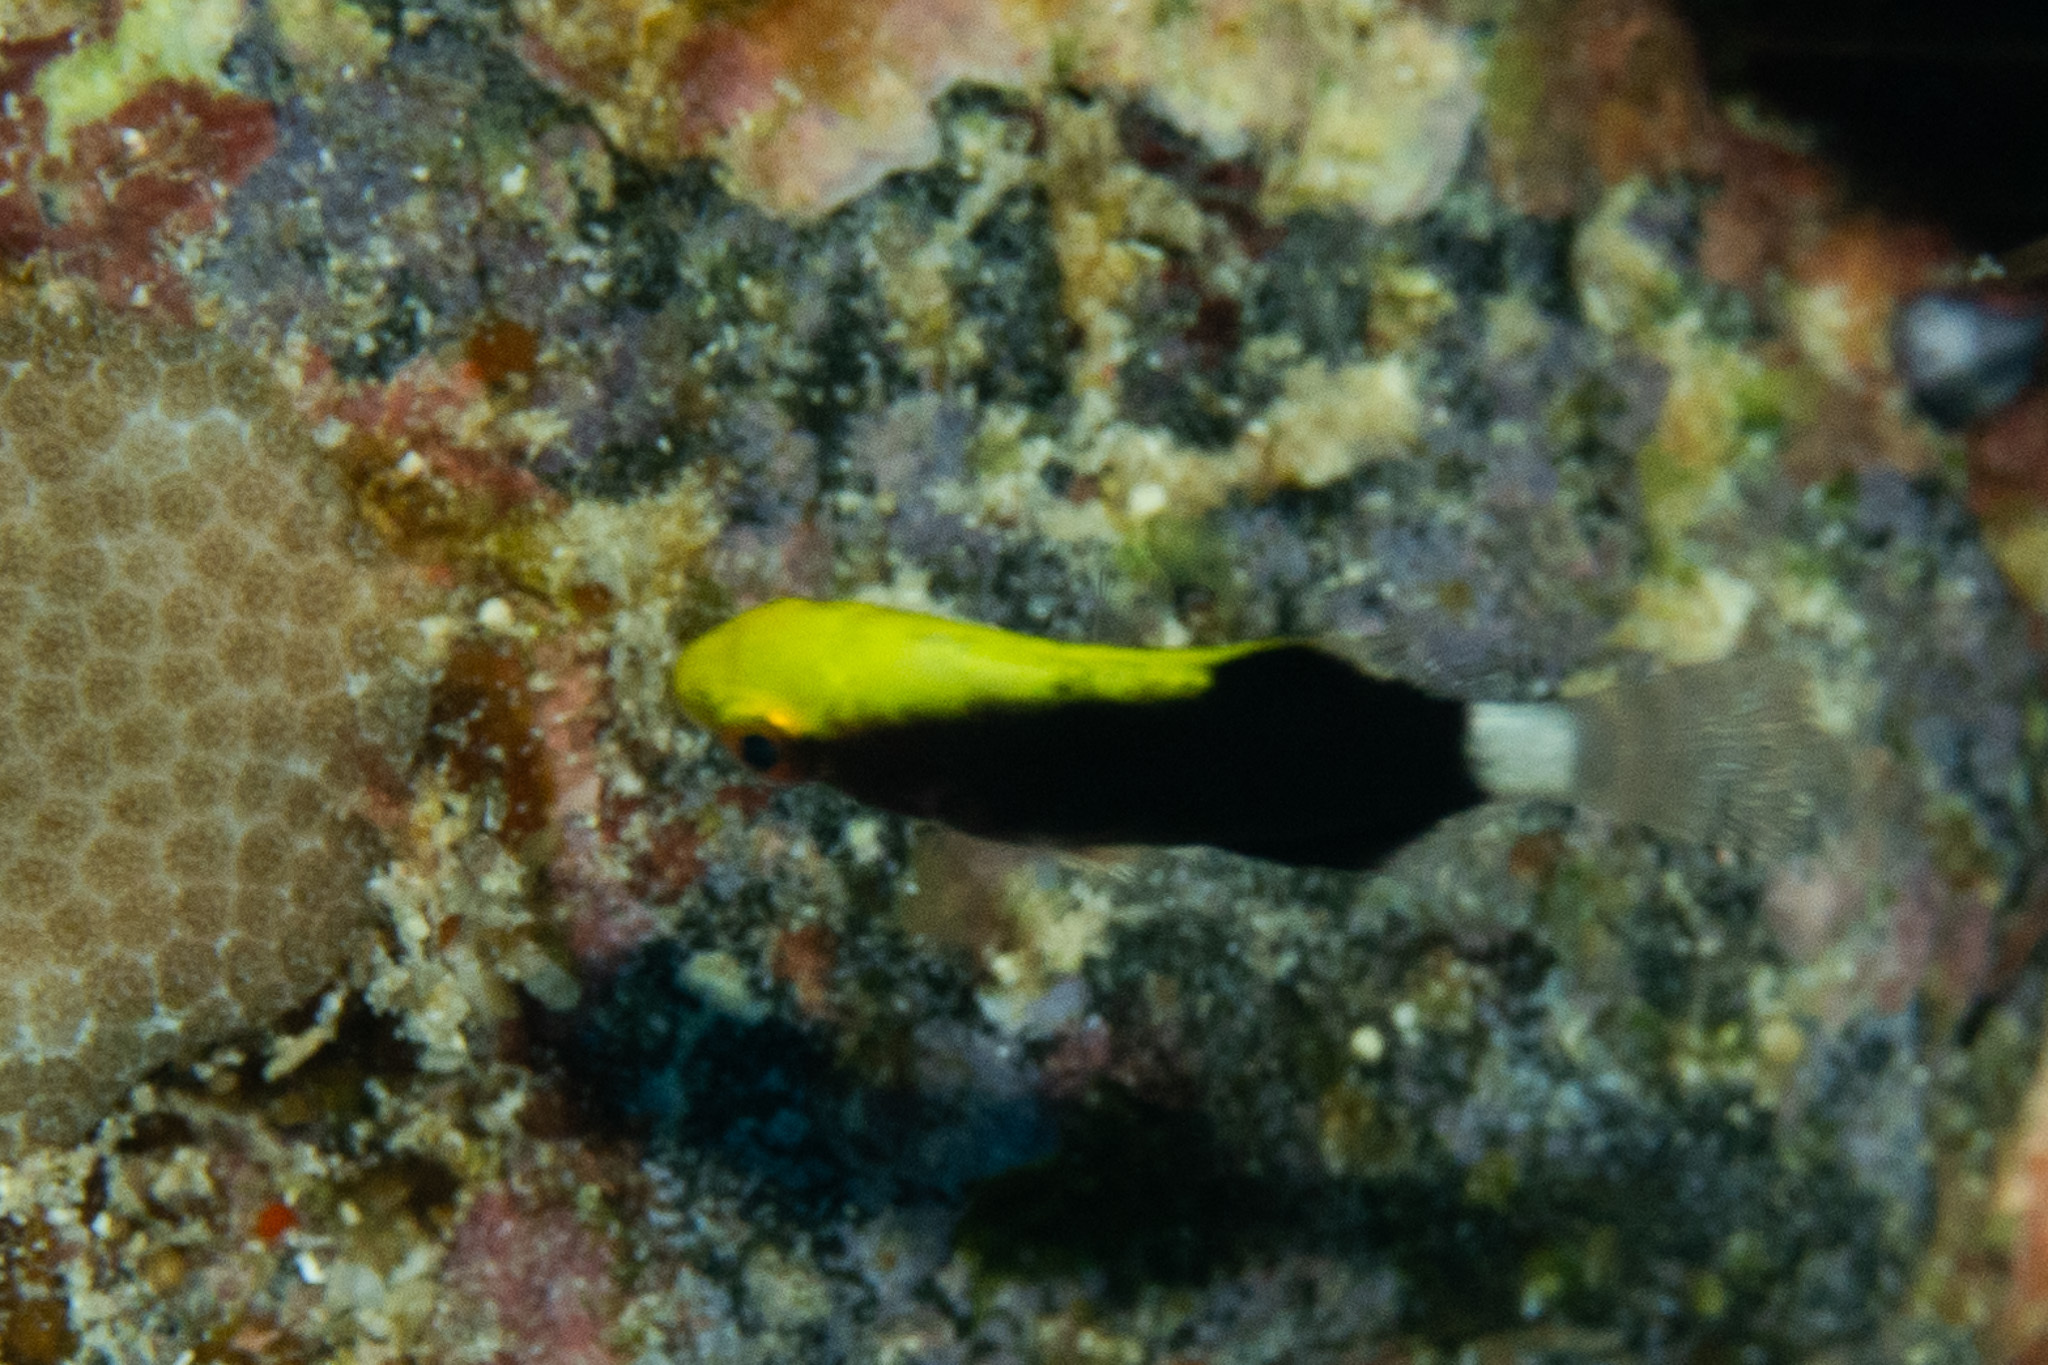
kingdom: Animalia
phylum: Chordata
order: Perciformes
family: Labridae
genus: Bodianus
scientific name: Bodianus albotaeniatus
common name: Hawaiian hogfish
